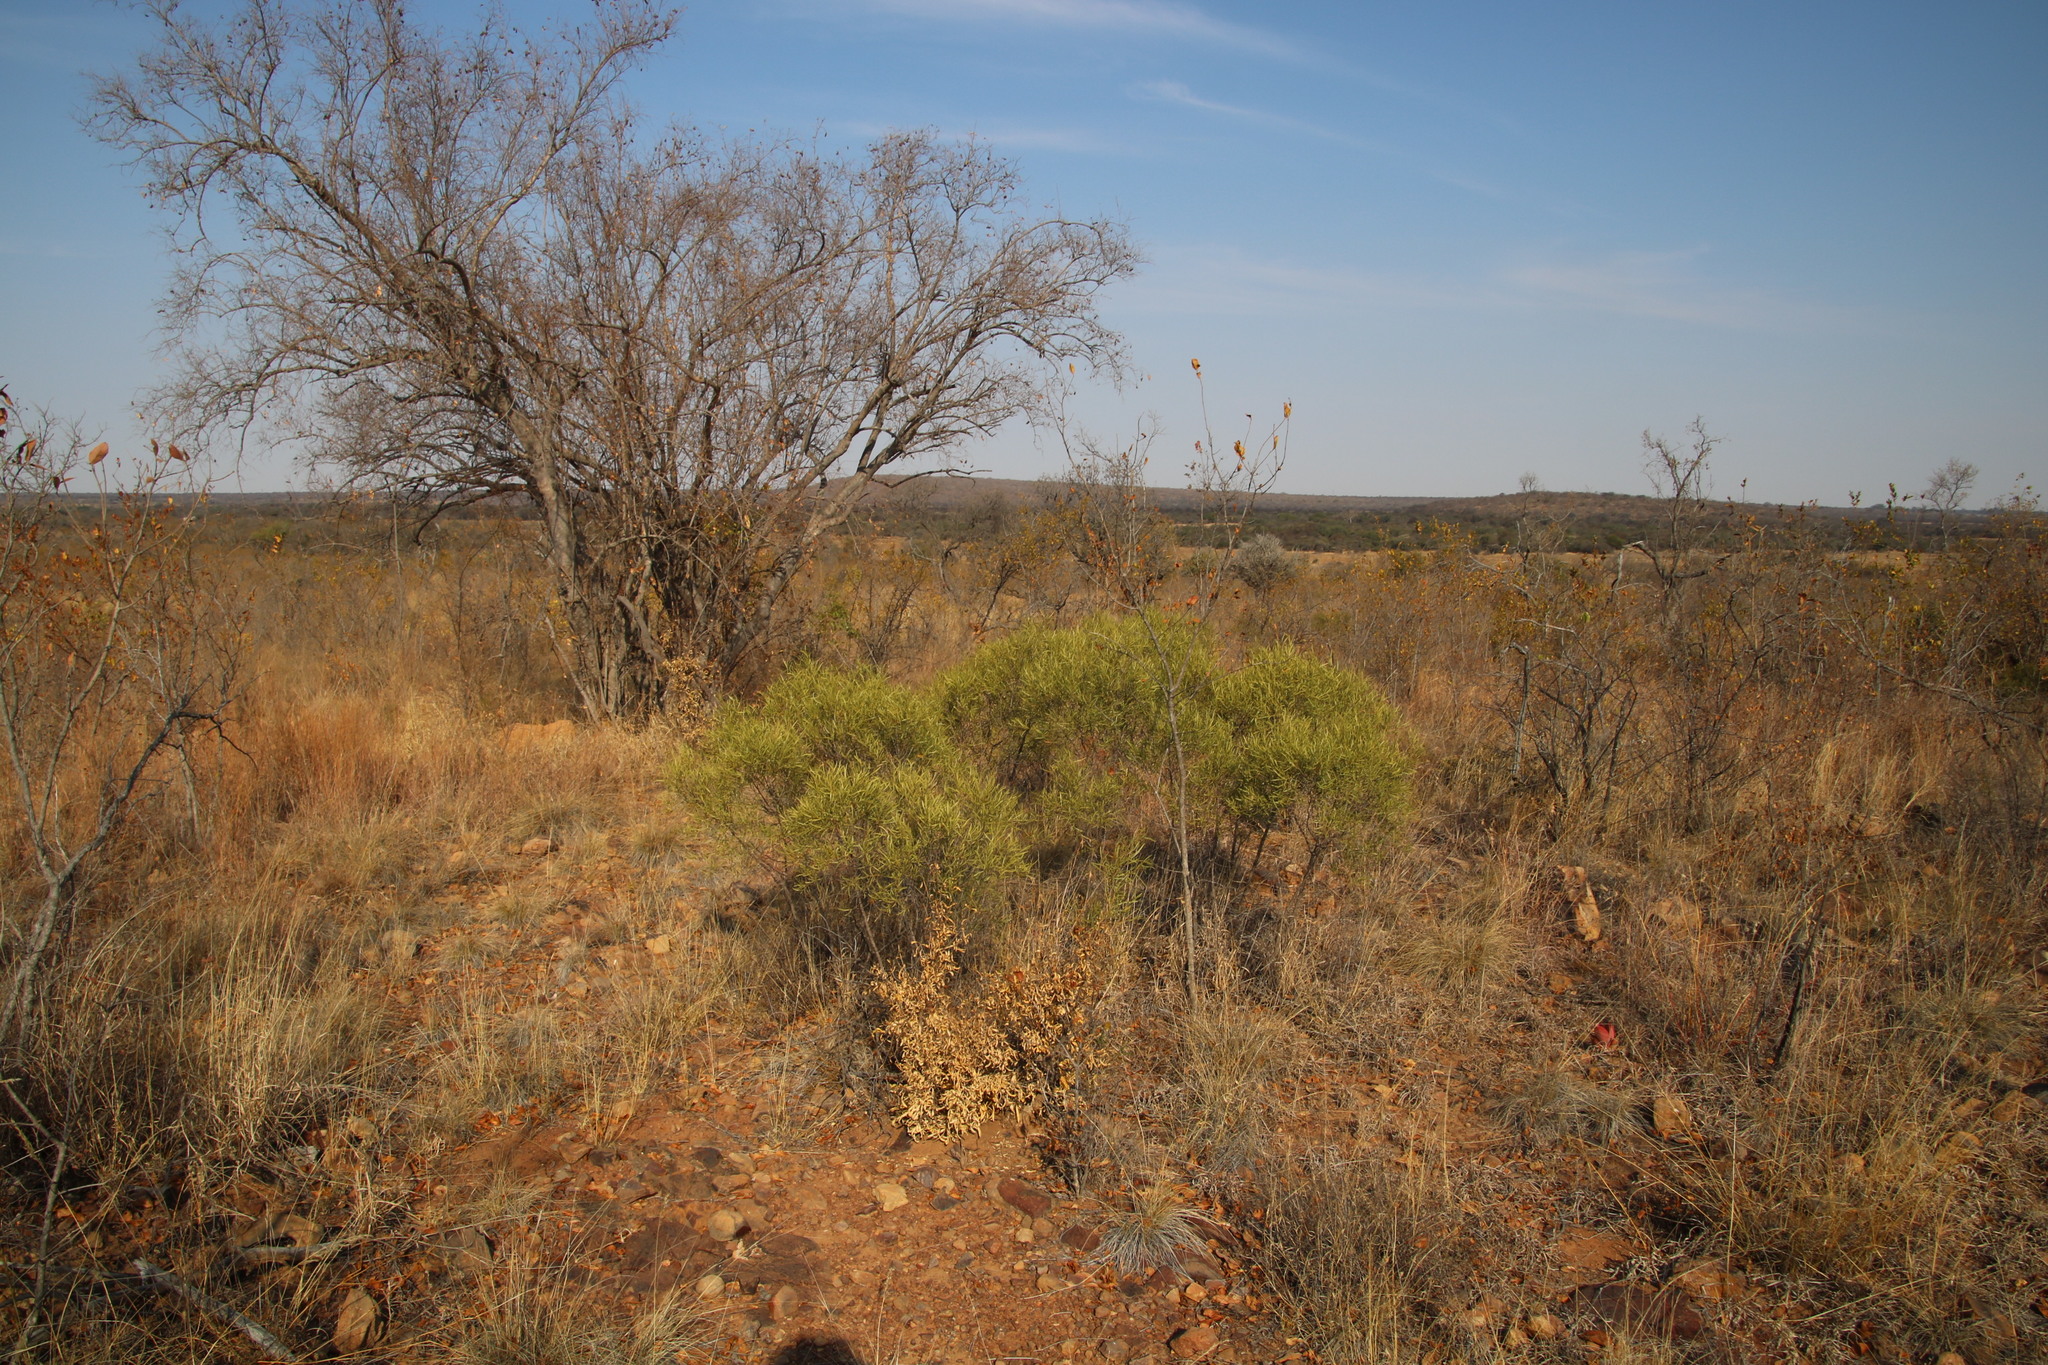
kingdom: Plantae
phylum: Tracheophyta
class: Magnoliopsida
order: Ericales
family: Ebenaceae
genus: Euclea
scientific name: Euclea linearis
